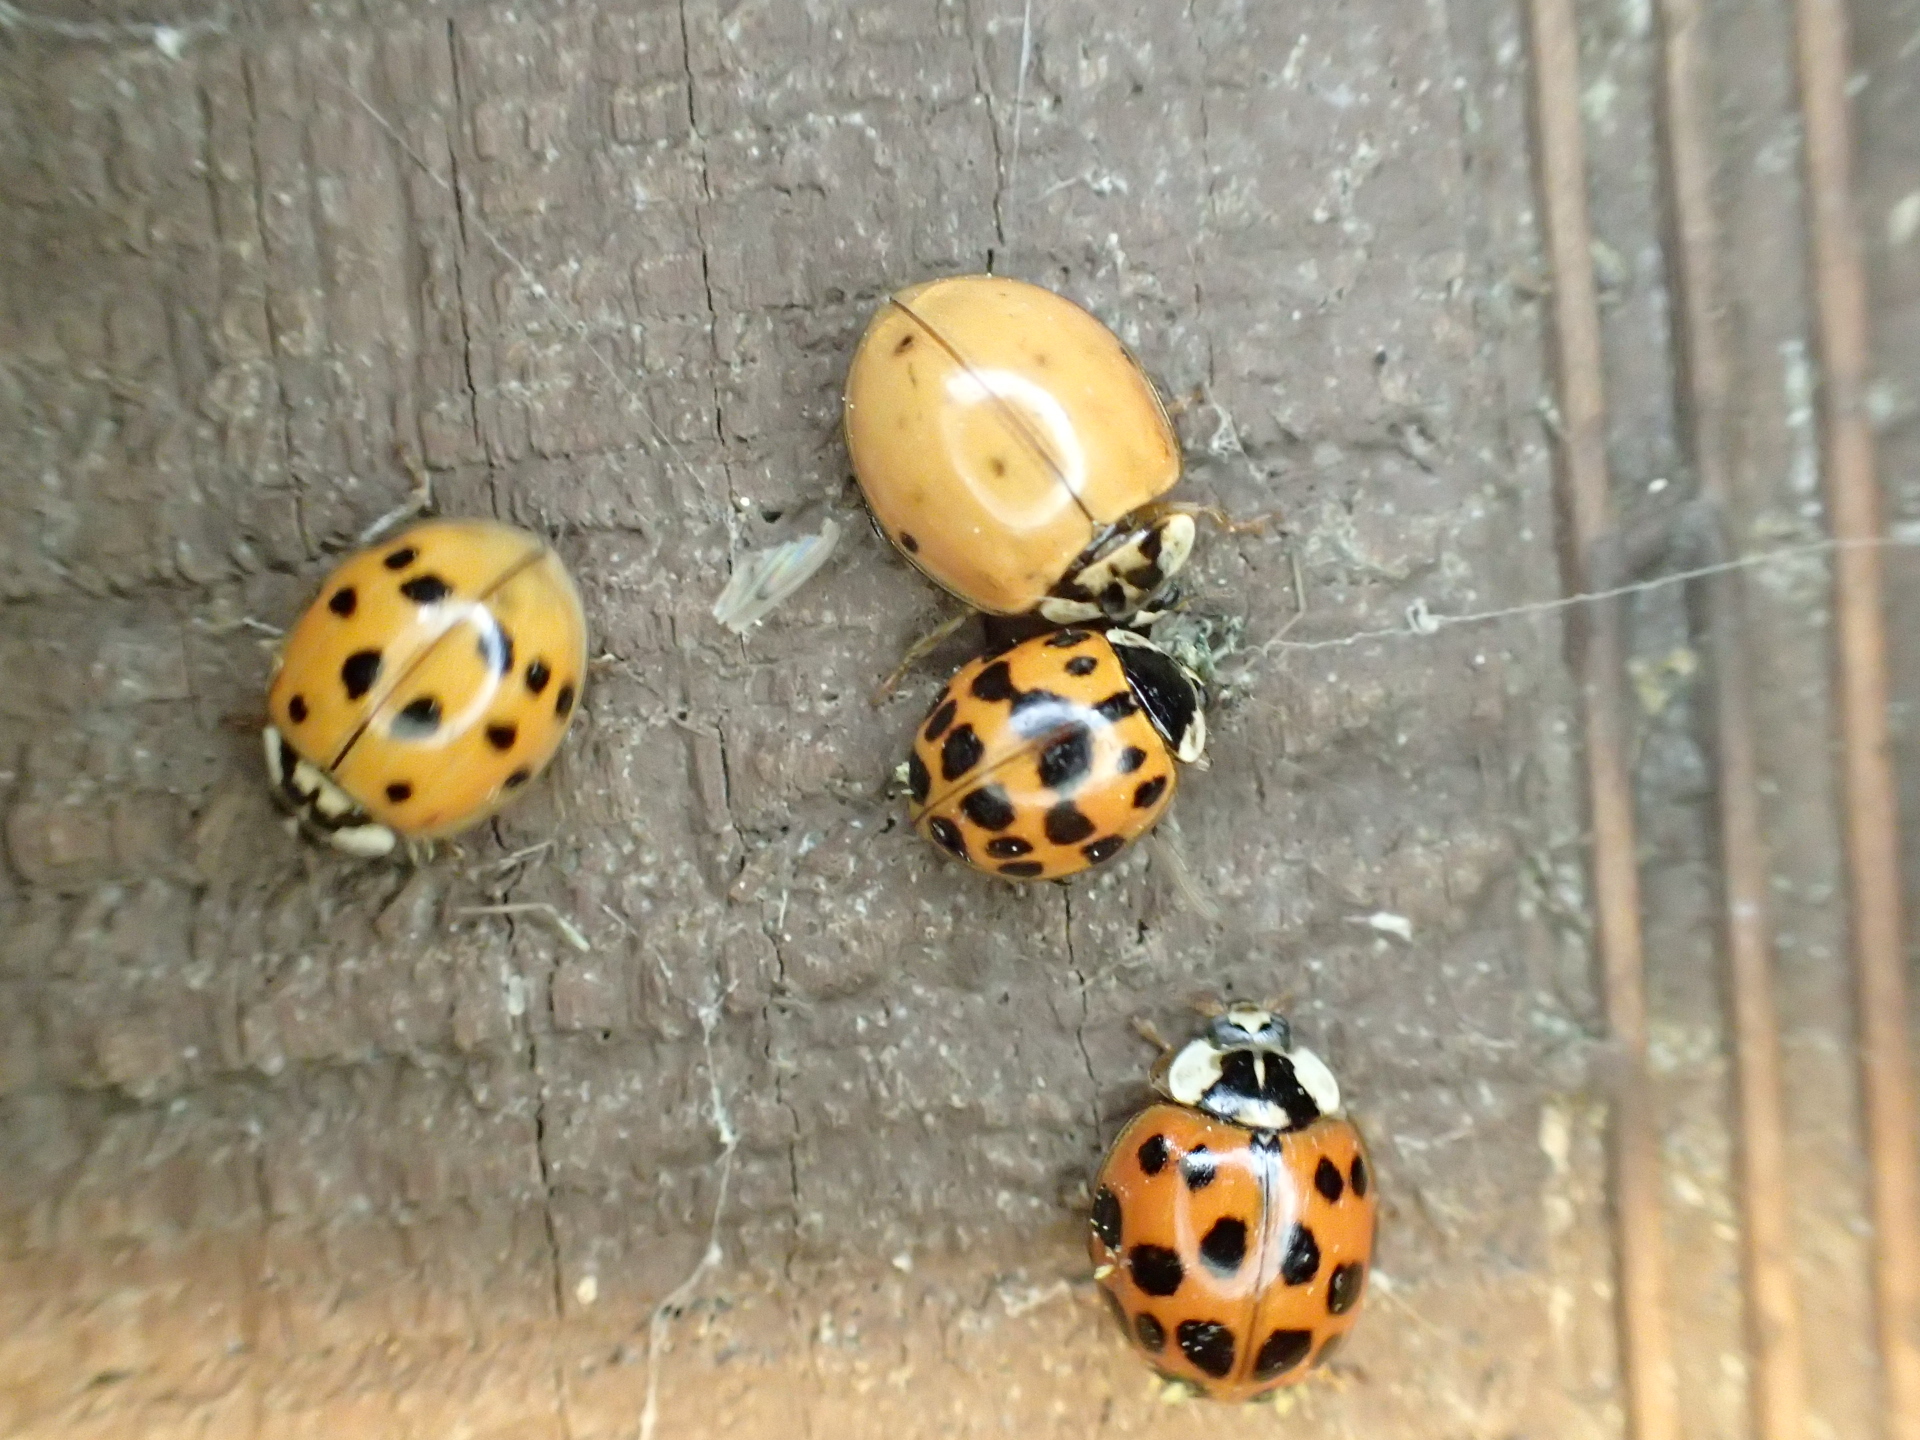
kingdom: Animalia
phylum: Arthropoda
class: Insecta
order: Coleoptera
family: Coccinellidae
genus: Harmonia
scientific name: Harmonia axyridis
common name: Harlequin ladybird
